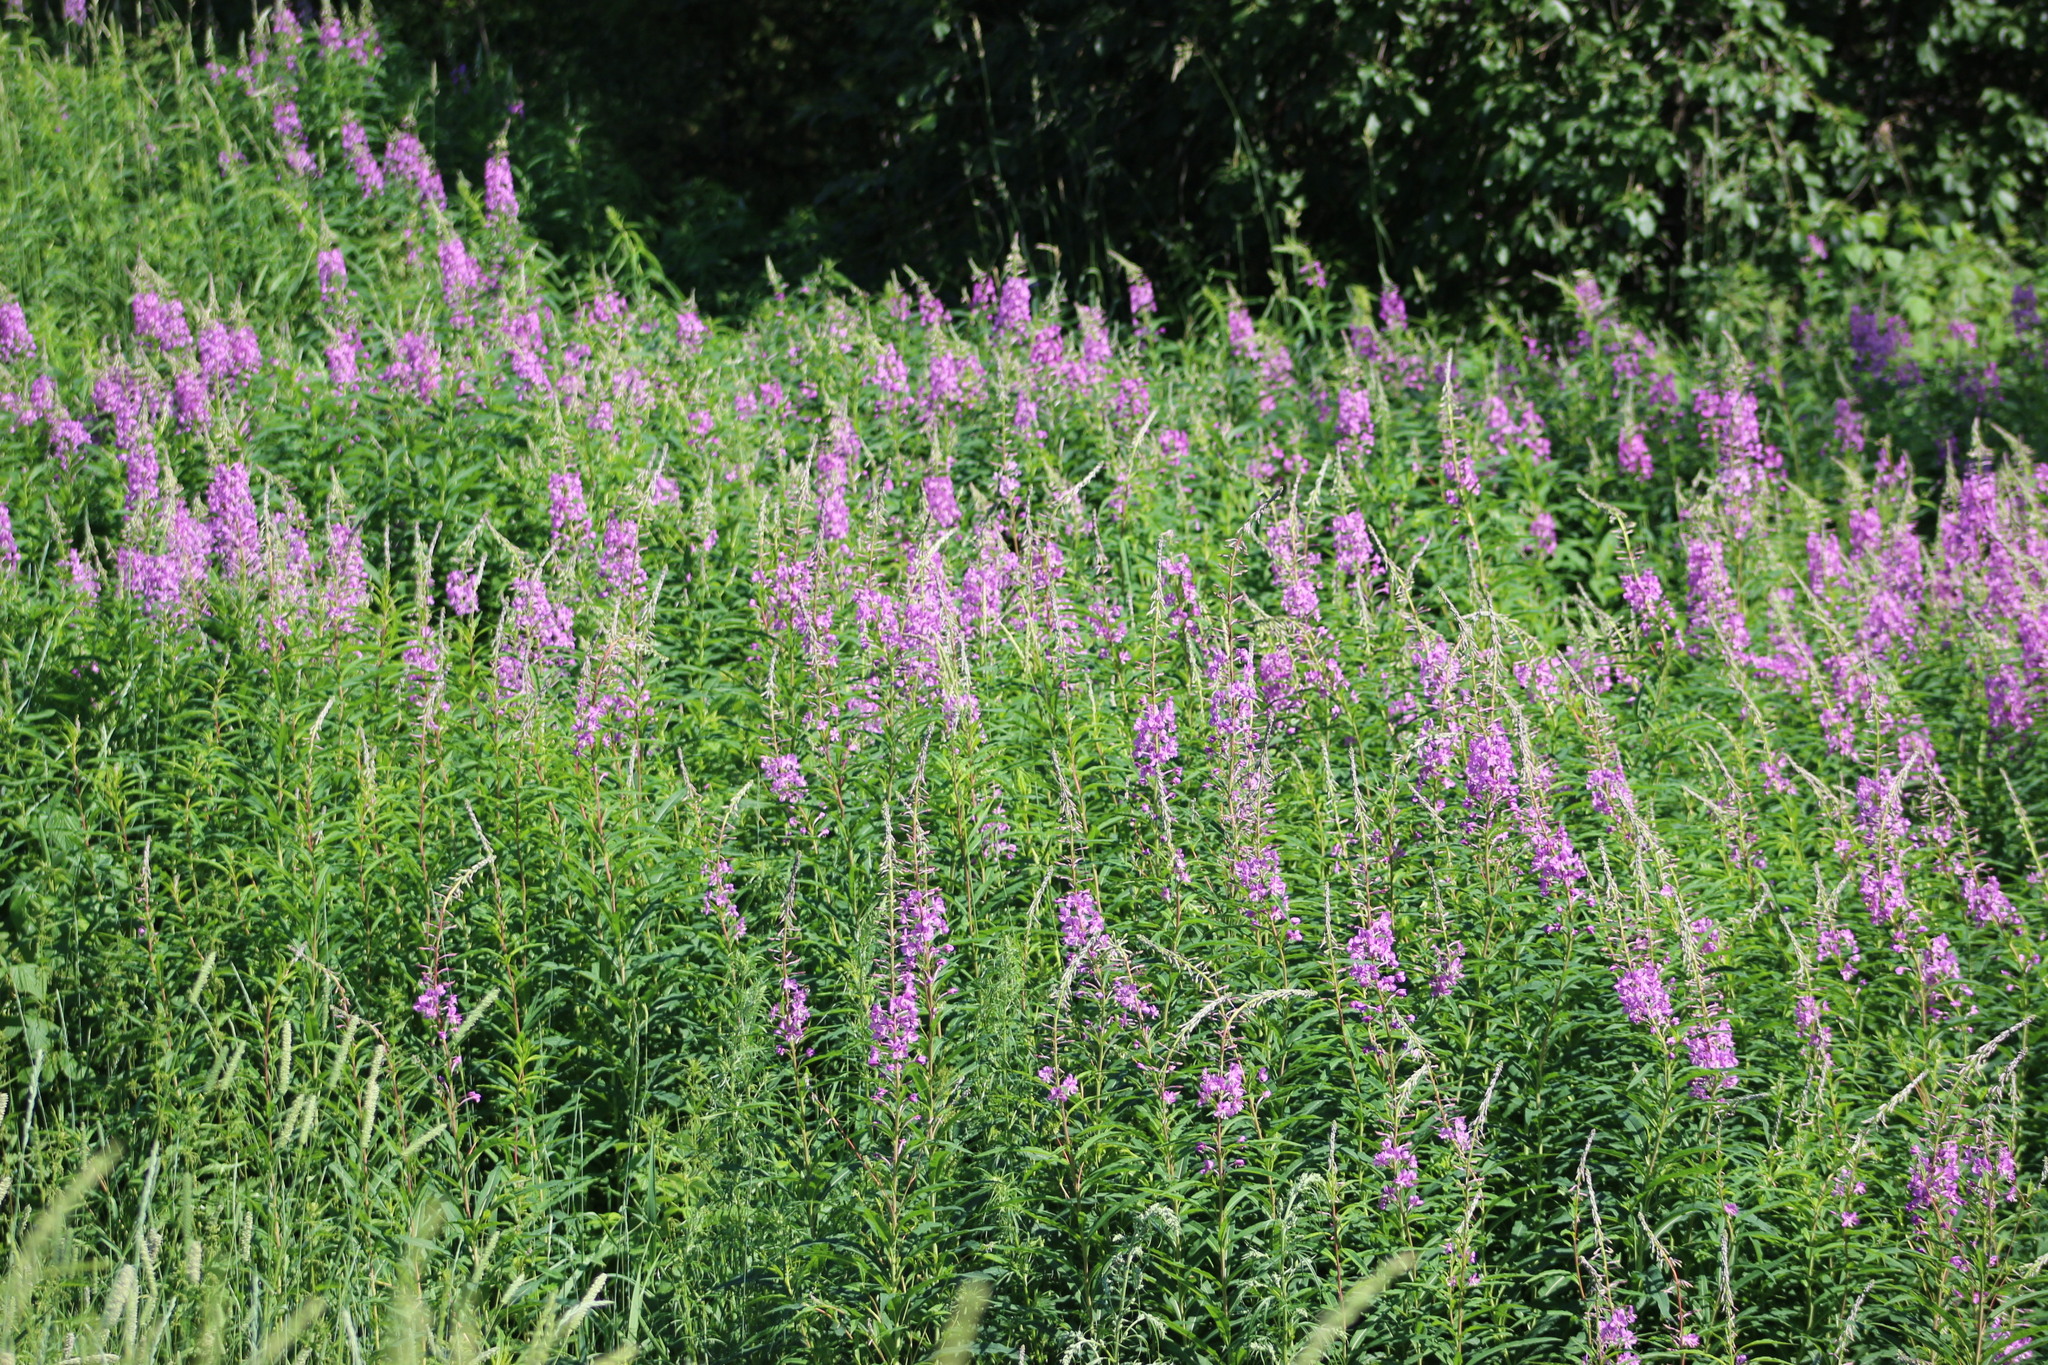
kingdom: Plantae
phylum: Tracheophyta
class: Magnoliopsida
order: Myrtales
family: Onagraceae
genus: Chamaenerion
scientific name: Chamaenerion angustifolium
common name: Fireweed
